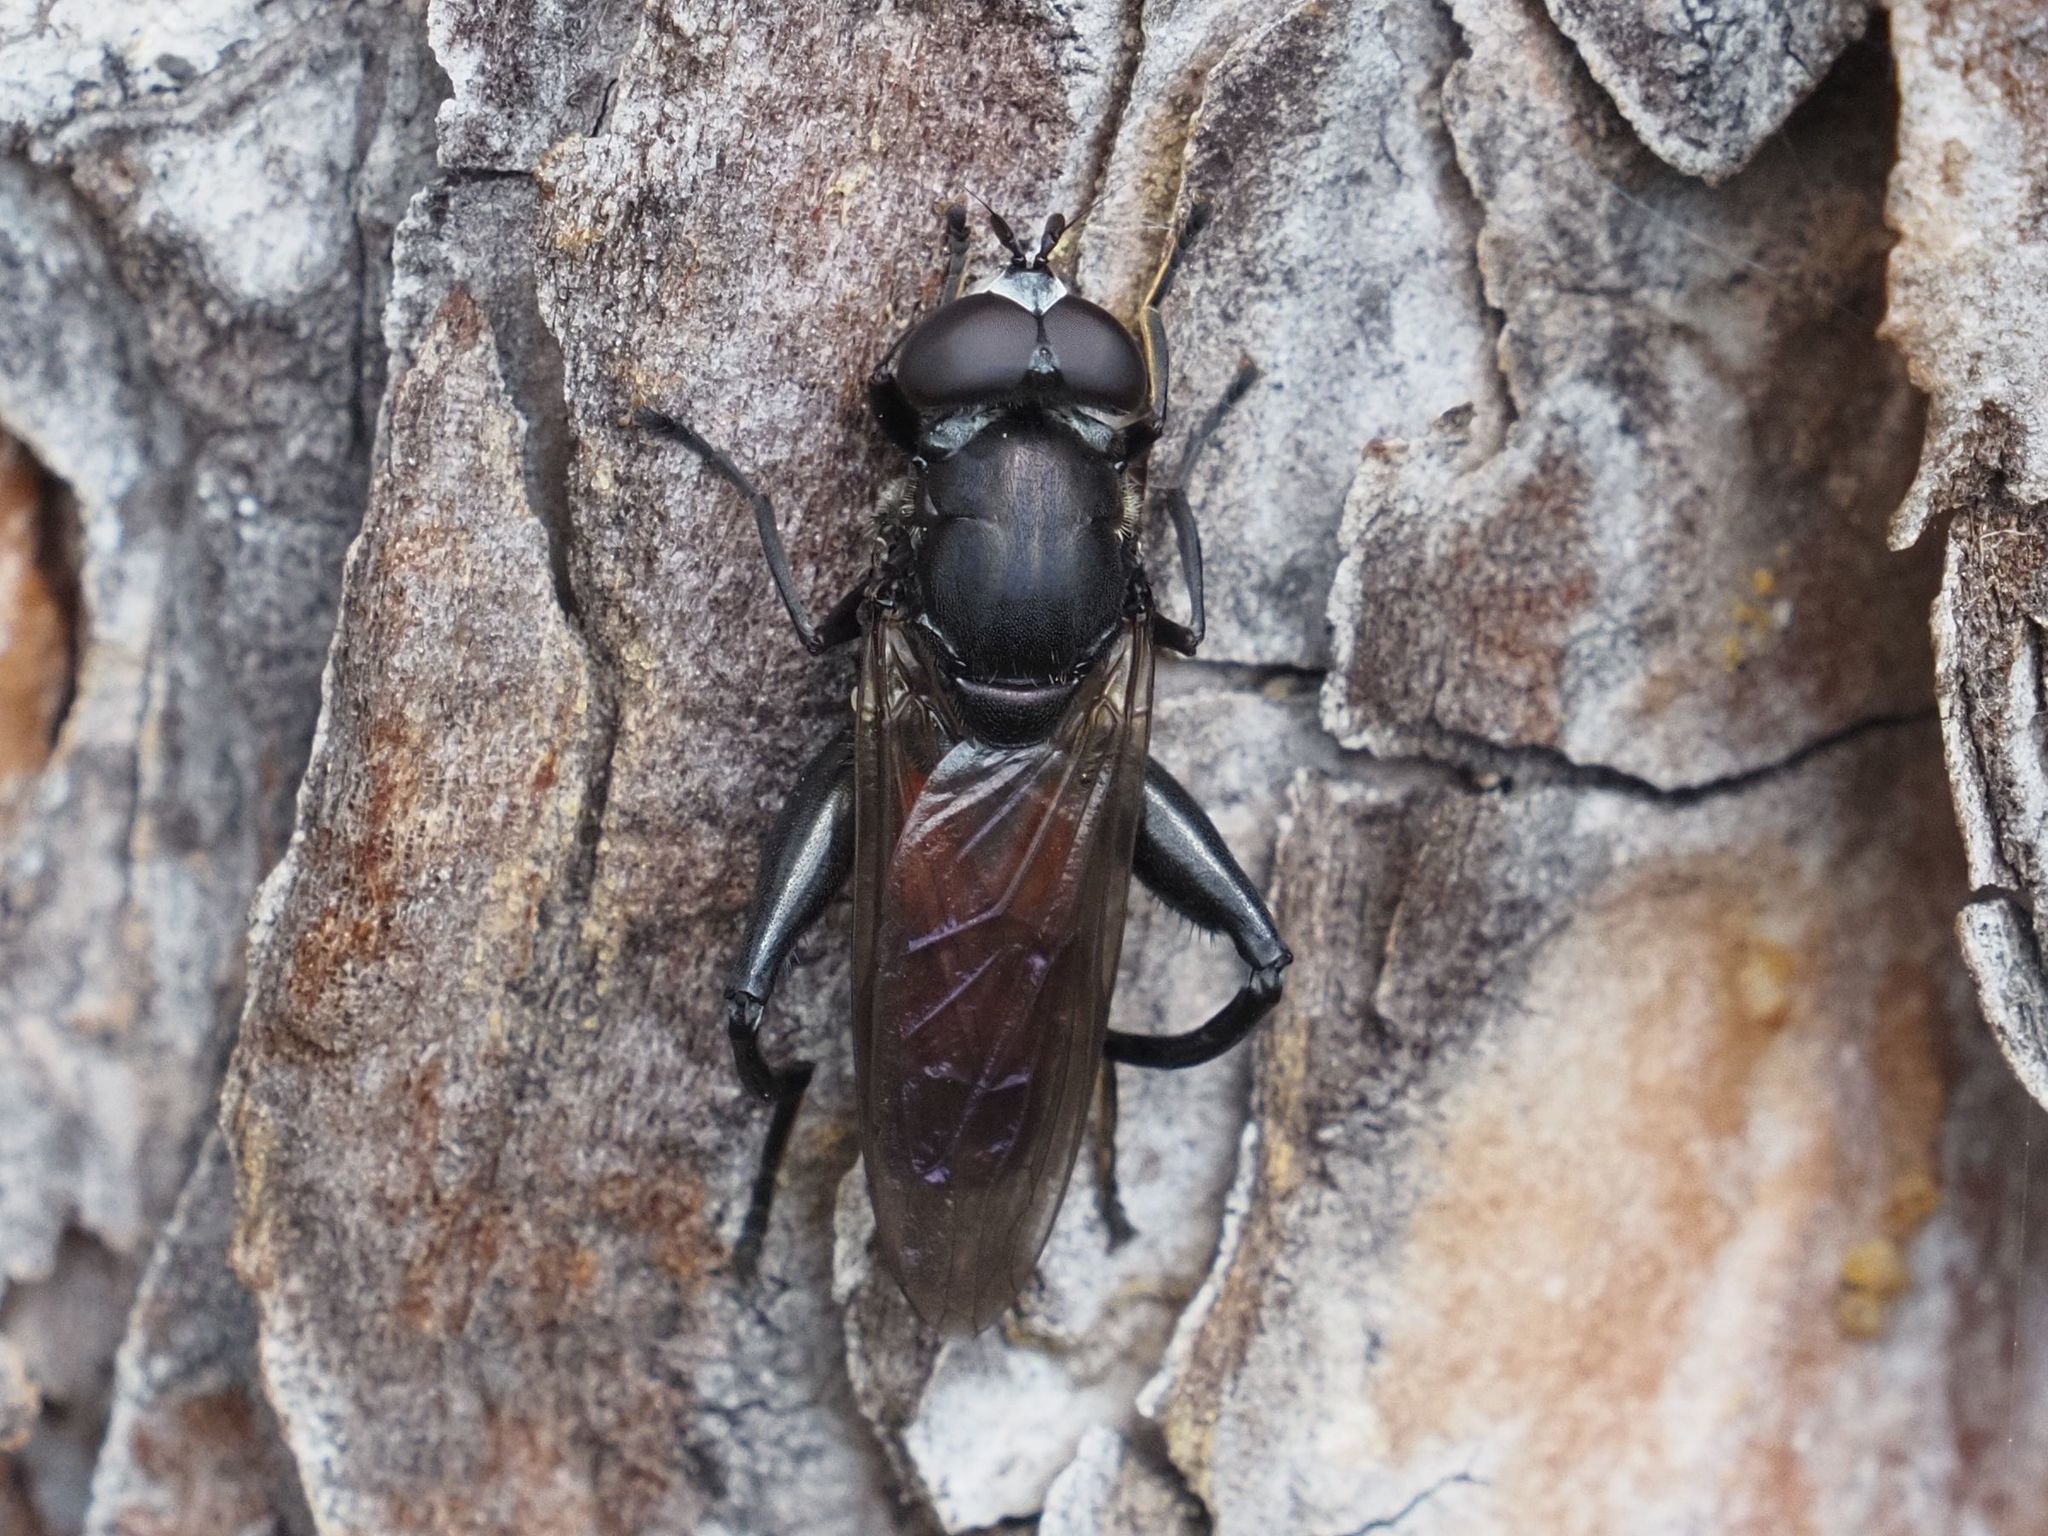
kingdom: Animalia
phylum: Arthropoda
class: Insecta
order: Diptera
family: Syrphidae
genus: Chalcosyrphus
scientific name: Chalcosyrphus piger
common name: Short-haired leafwalker
